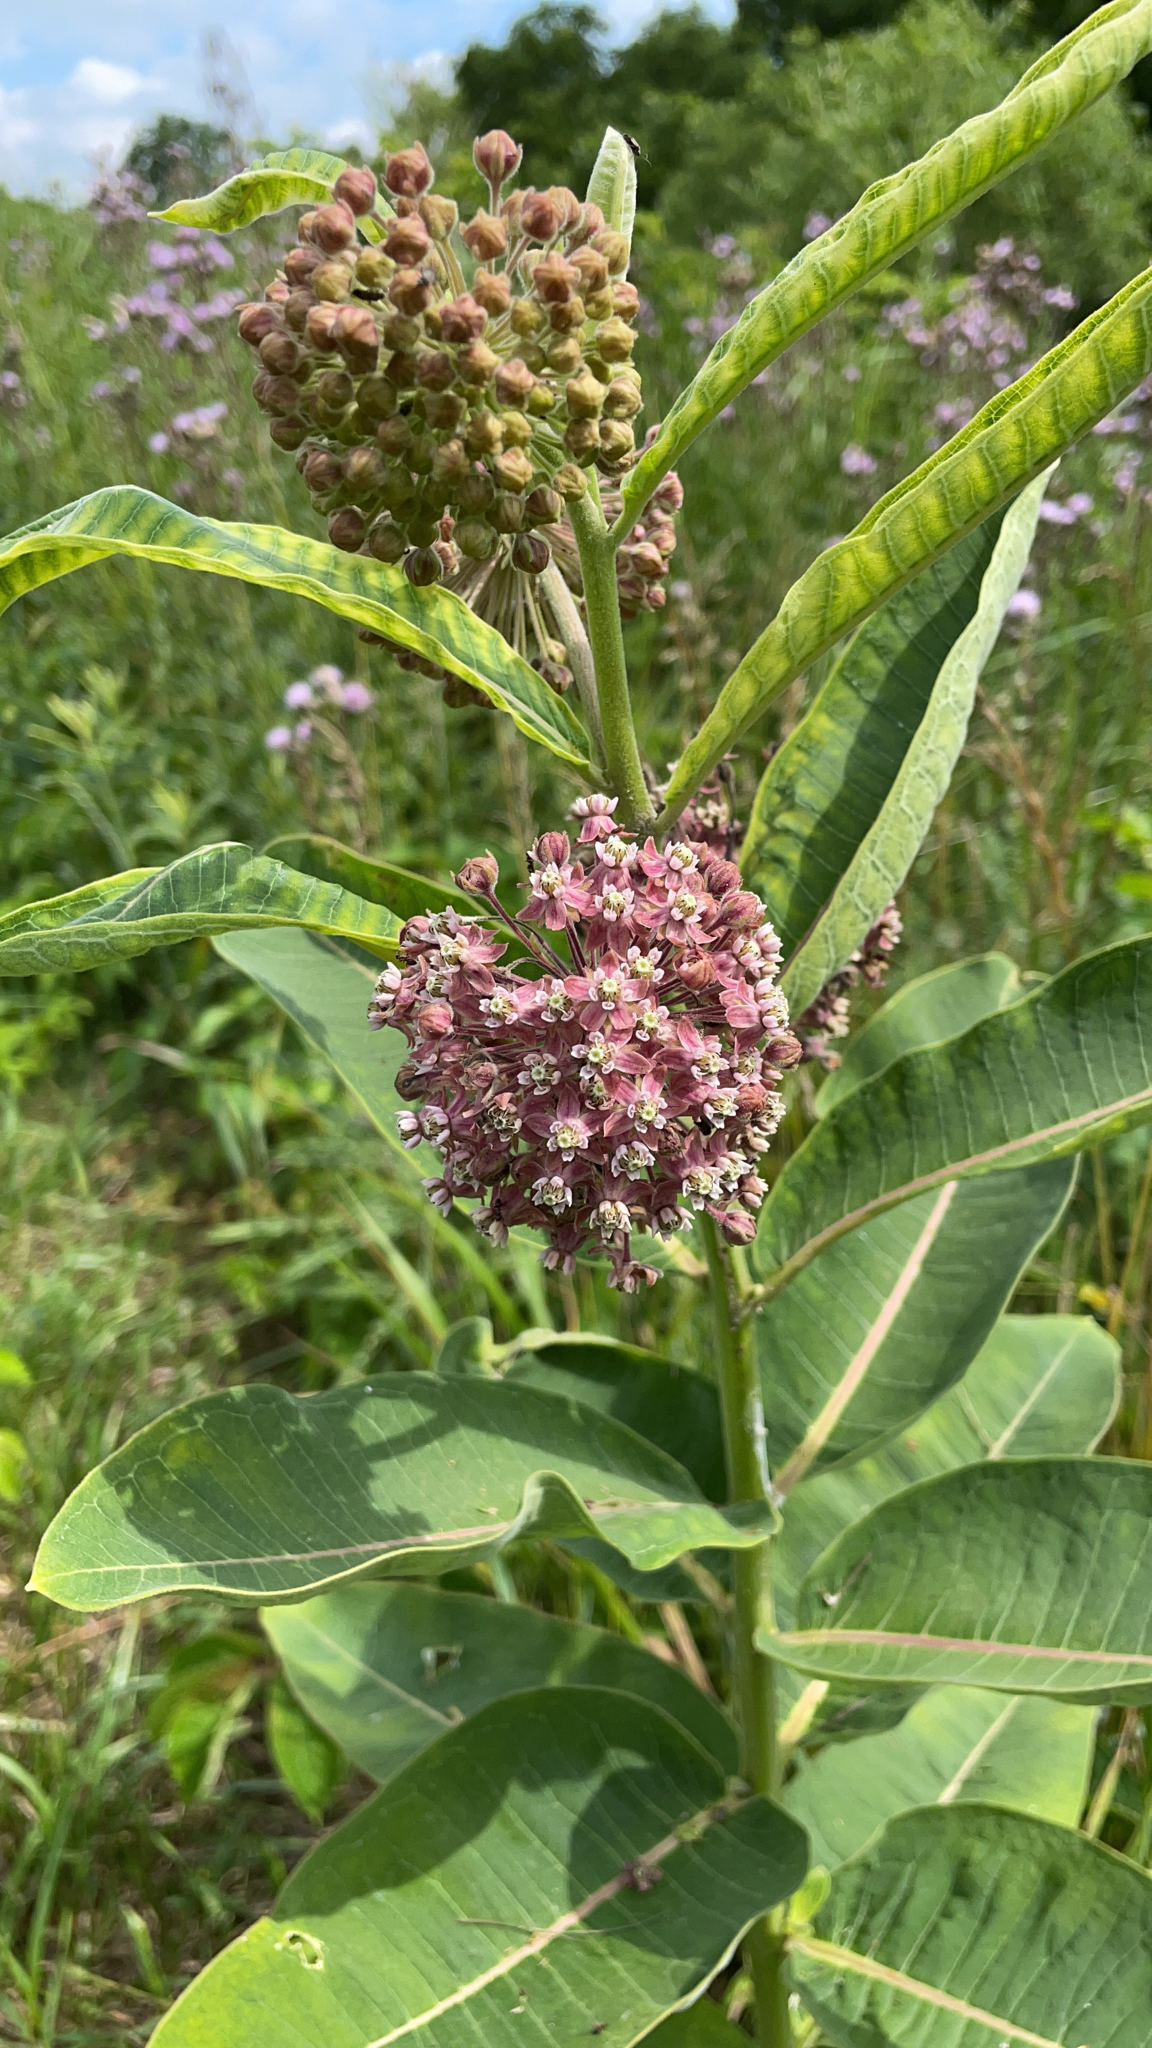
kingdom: Plantae
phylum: Tracheophyta
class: Magnoliopsida
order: Gentianales
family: Apocynaceae
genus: Asclepias
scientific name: Asclepias syriaca
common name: Common milkweed
